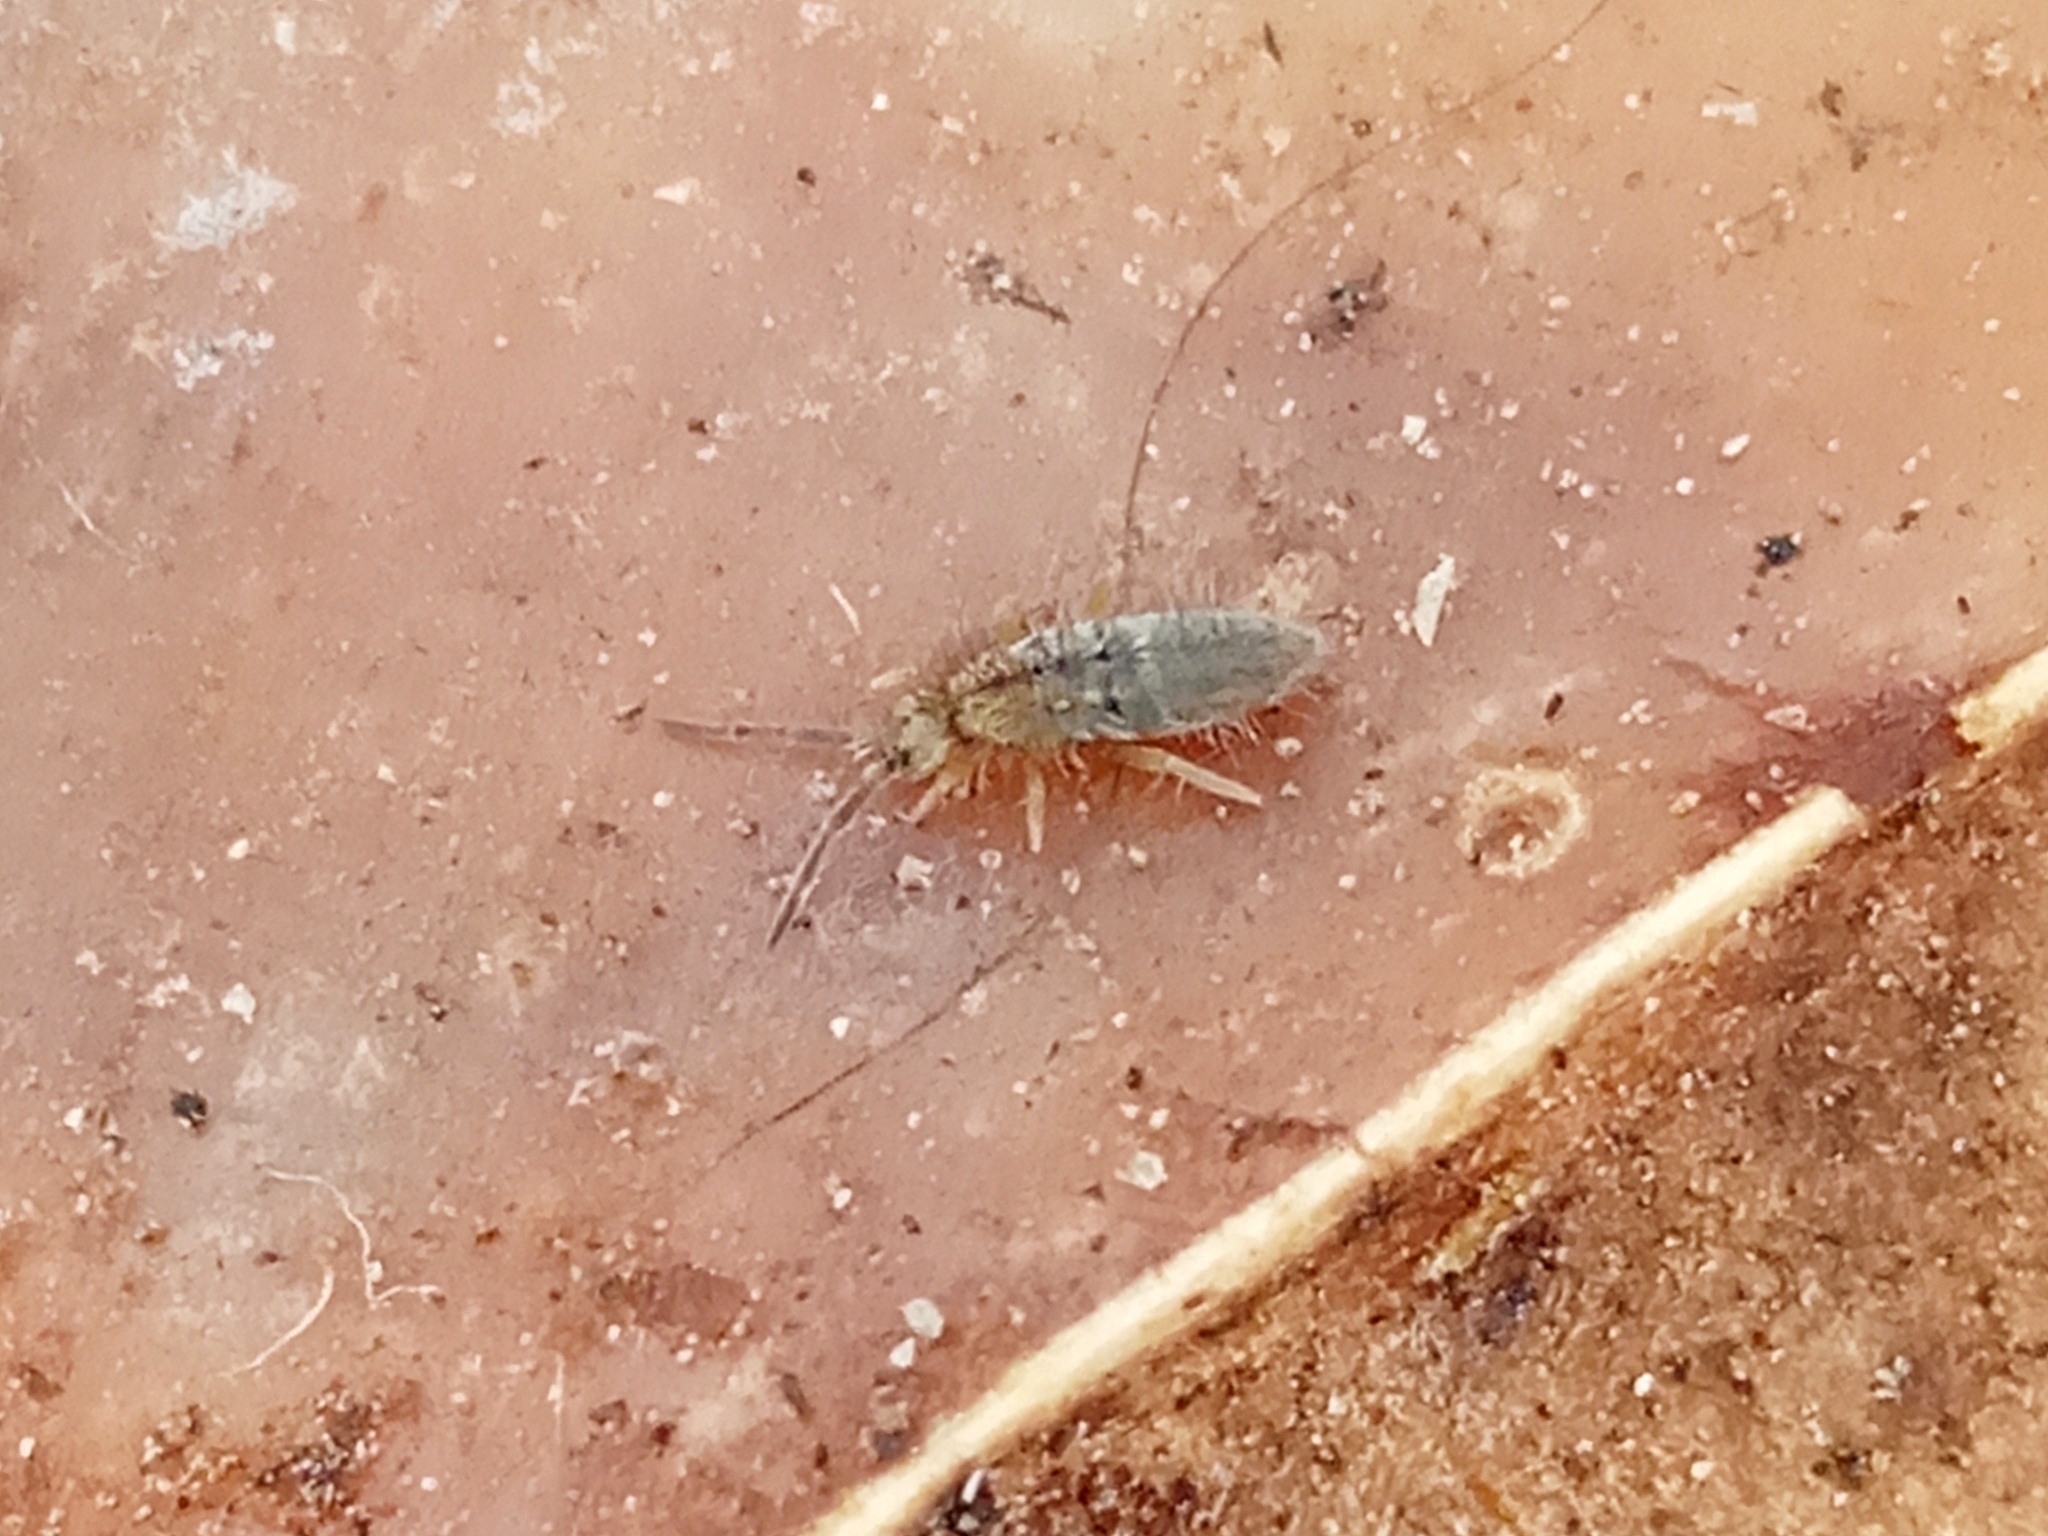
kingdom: Animalia
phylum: Arthropoda
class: Collembola
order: Entomobryomorpha
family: Entomobryidae
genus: Entomobrya
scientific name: Entomobrya
